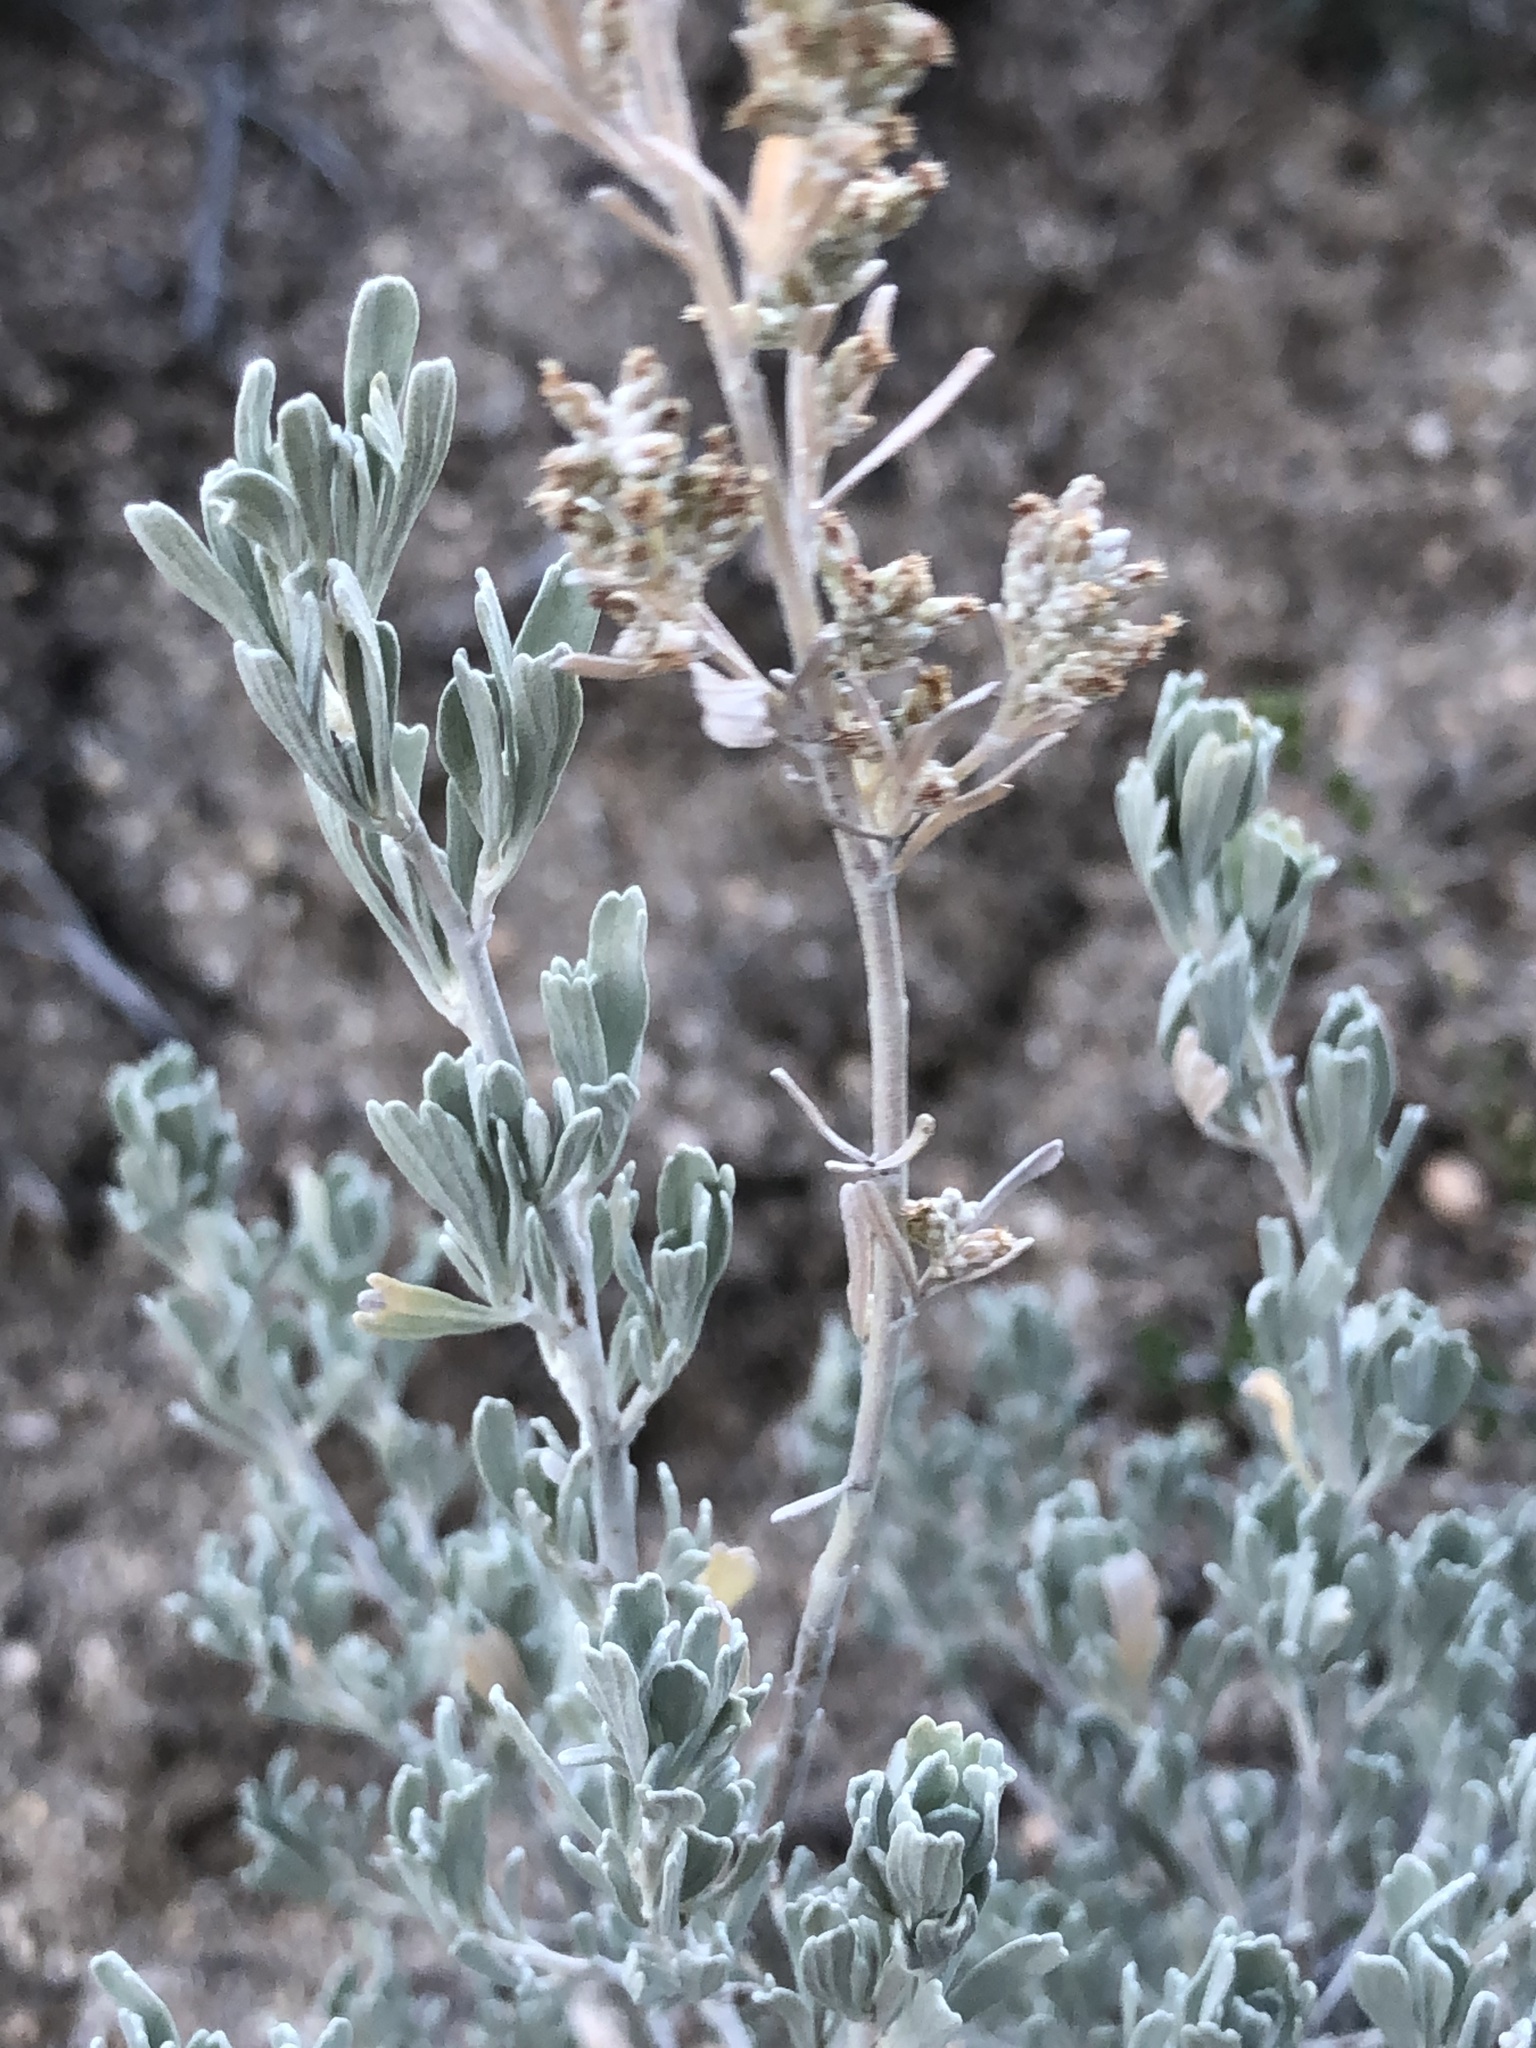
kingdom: Plantae
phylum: Tracheophyta
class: Magnoliopsida
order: Asterales
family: Asteraceae
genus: Artemisia
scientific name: Artemisia tridentata
